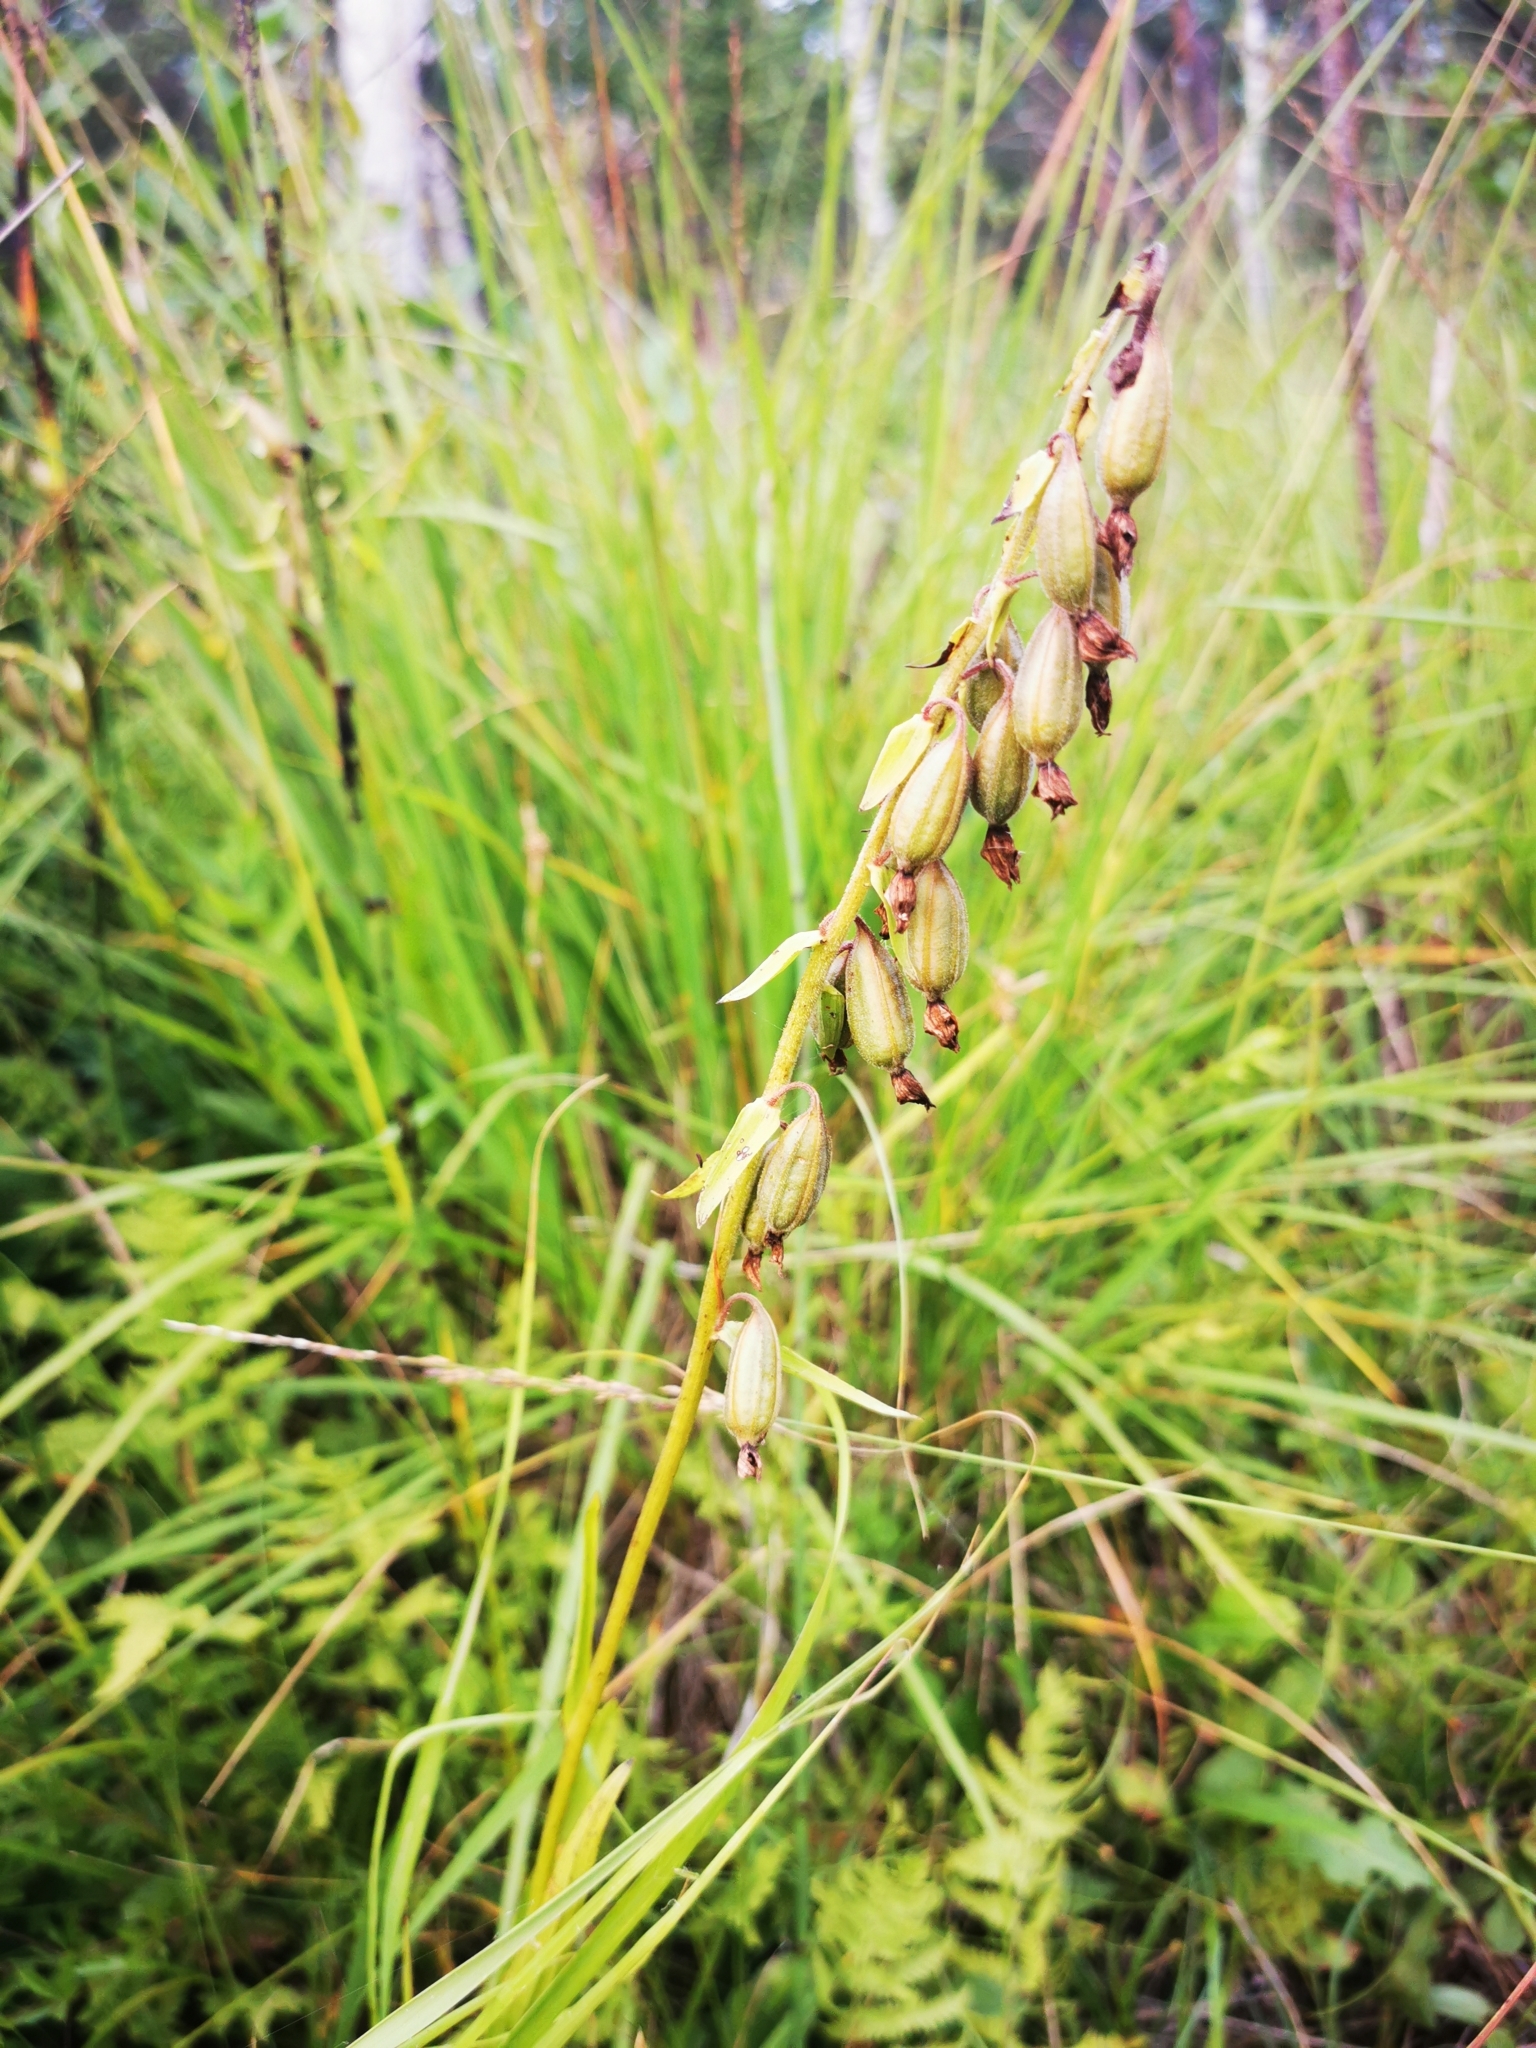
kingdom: Plantae
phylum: Tracheophyta
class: Liliopsida
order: Asparagales
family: Orchidaceae
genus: Epipactis
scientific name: Epipactis palustris
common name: Marsh helleborine
